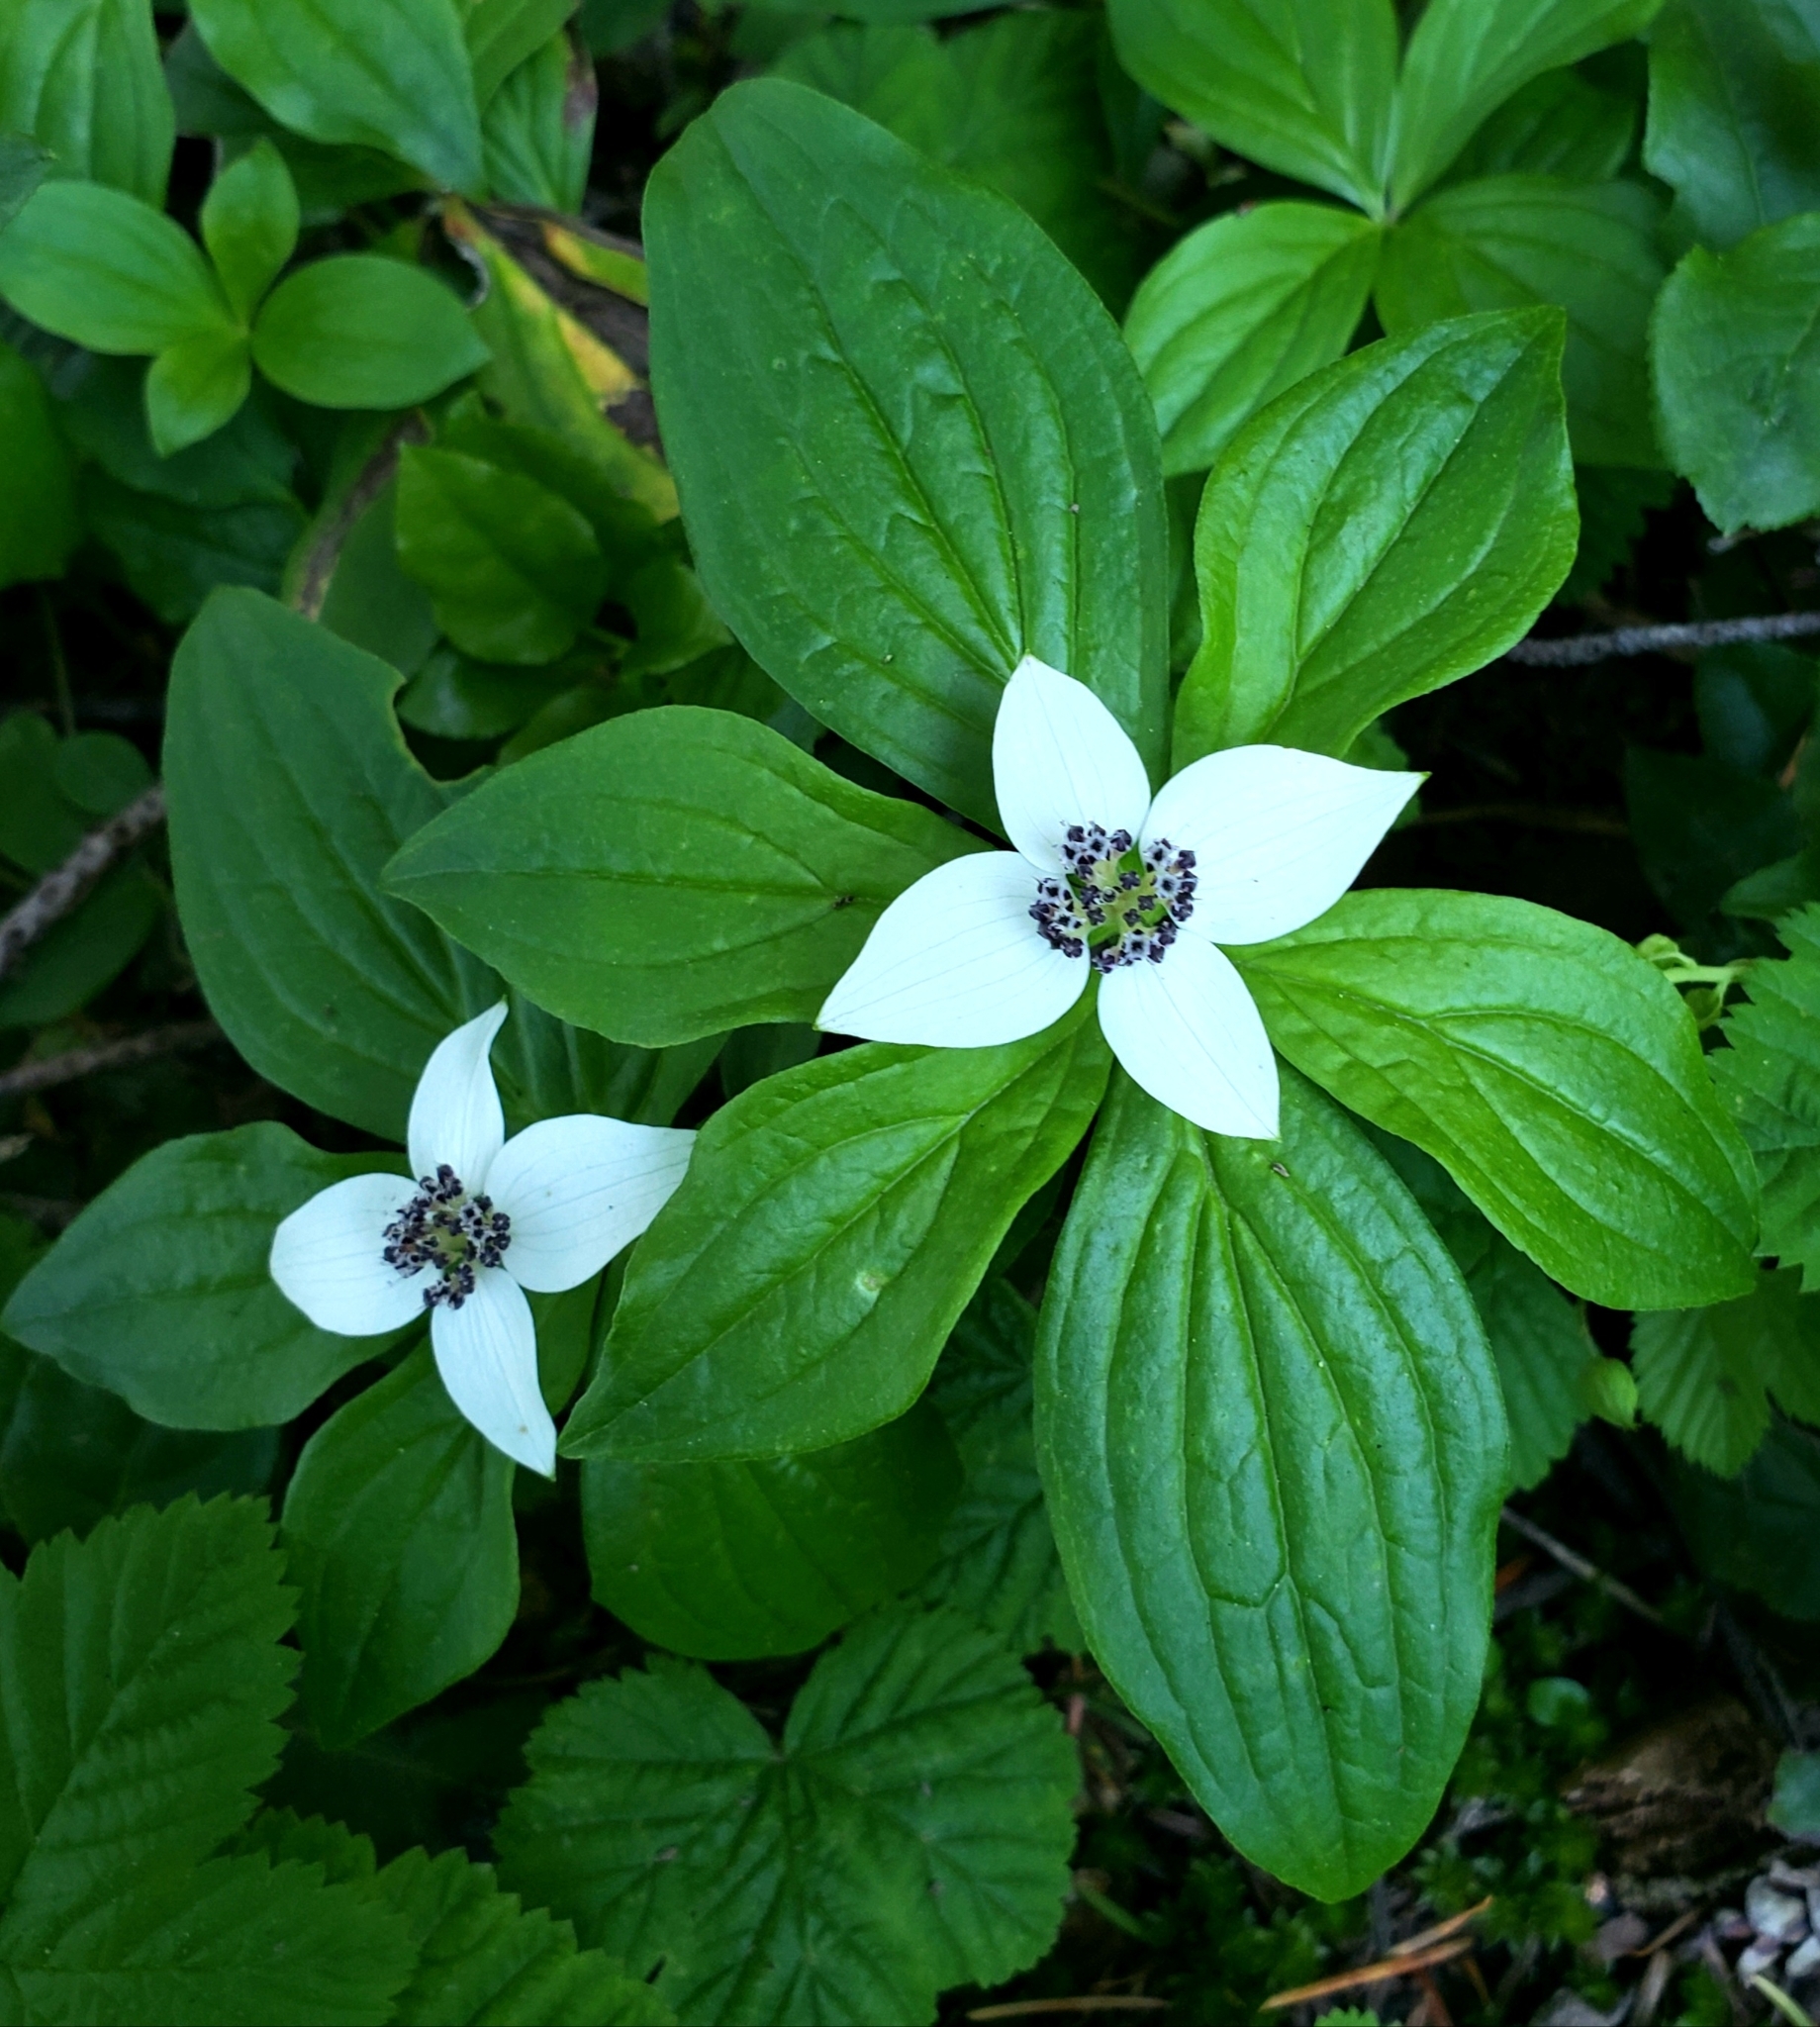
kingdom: Plantae
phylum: Tracheophyta
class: Magnoliopsida
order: Cornales
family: Cornaceae
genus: Cornus
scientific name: Cornus unalaschkensis
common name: Alaska bunchberry
